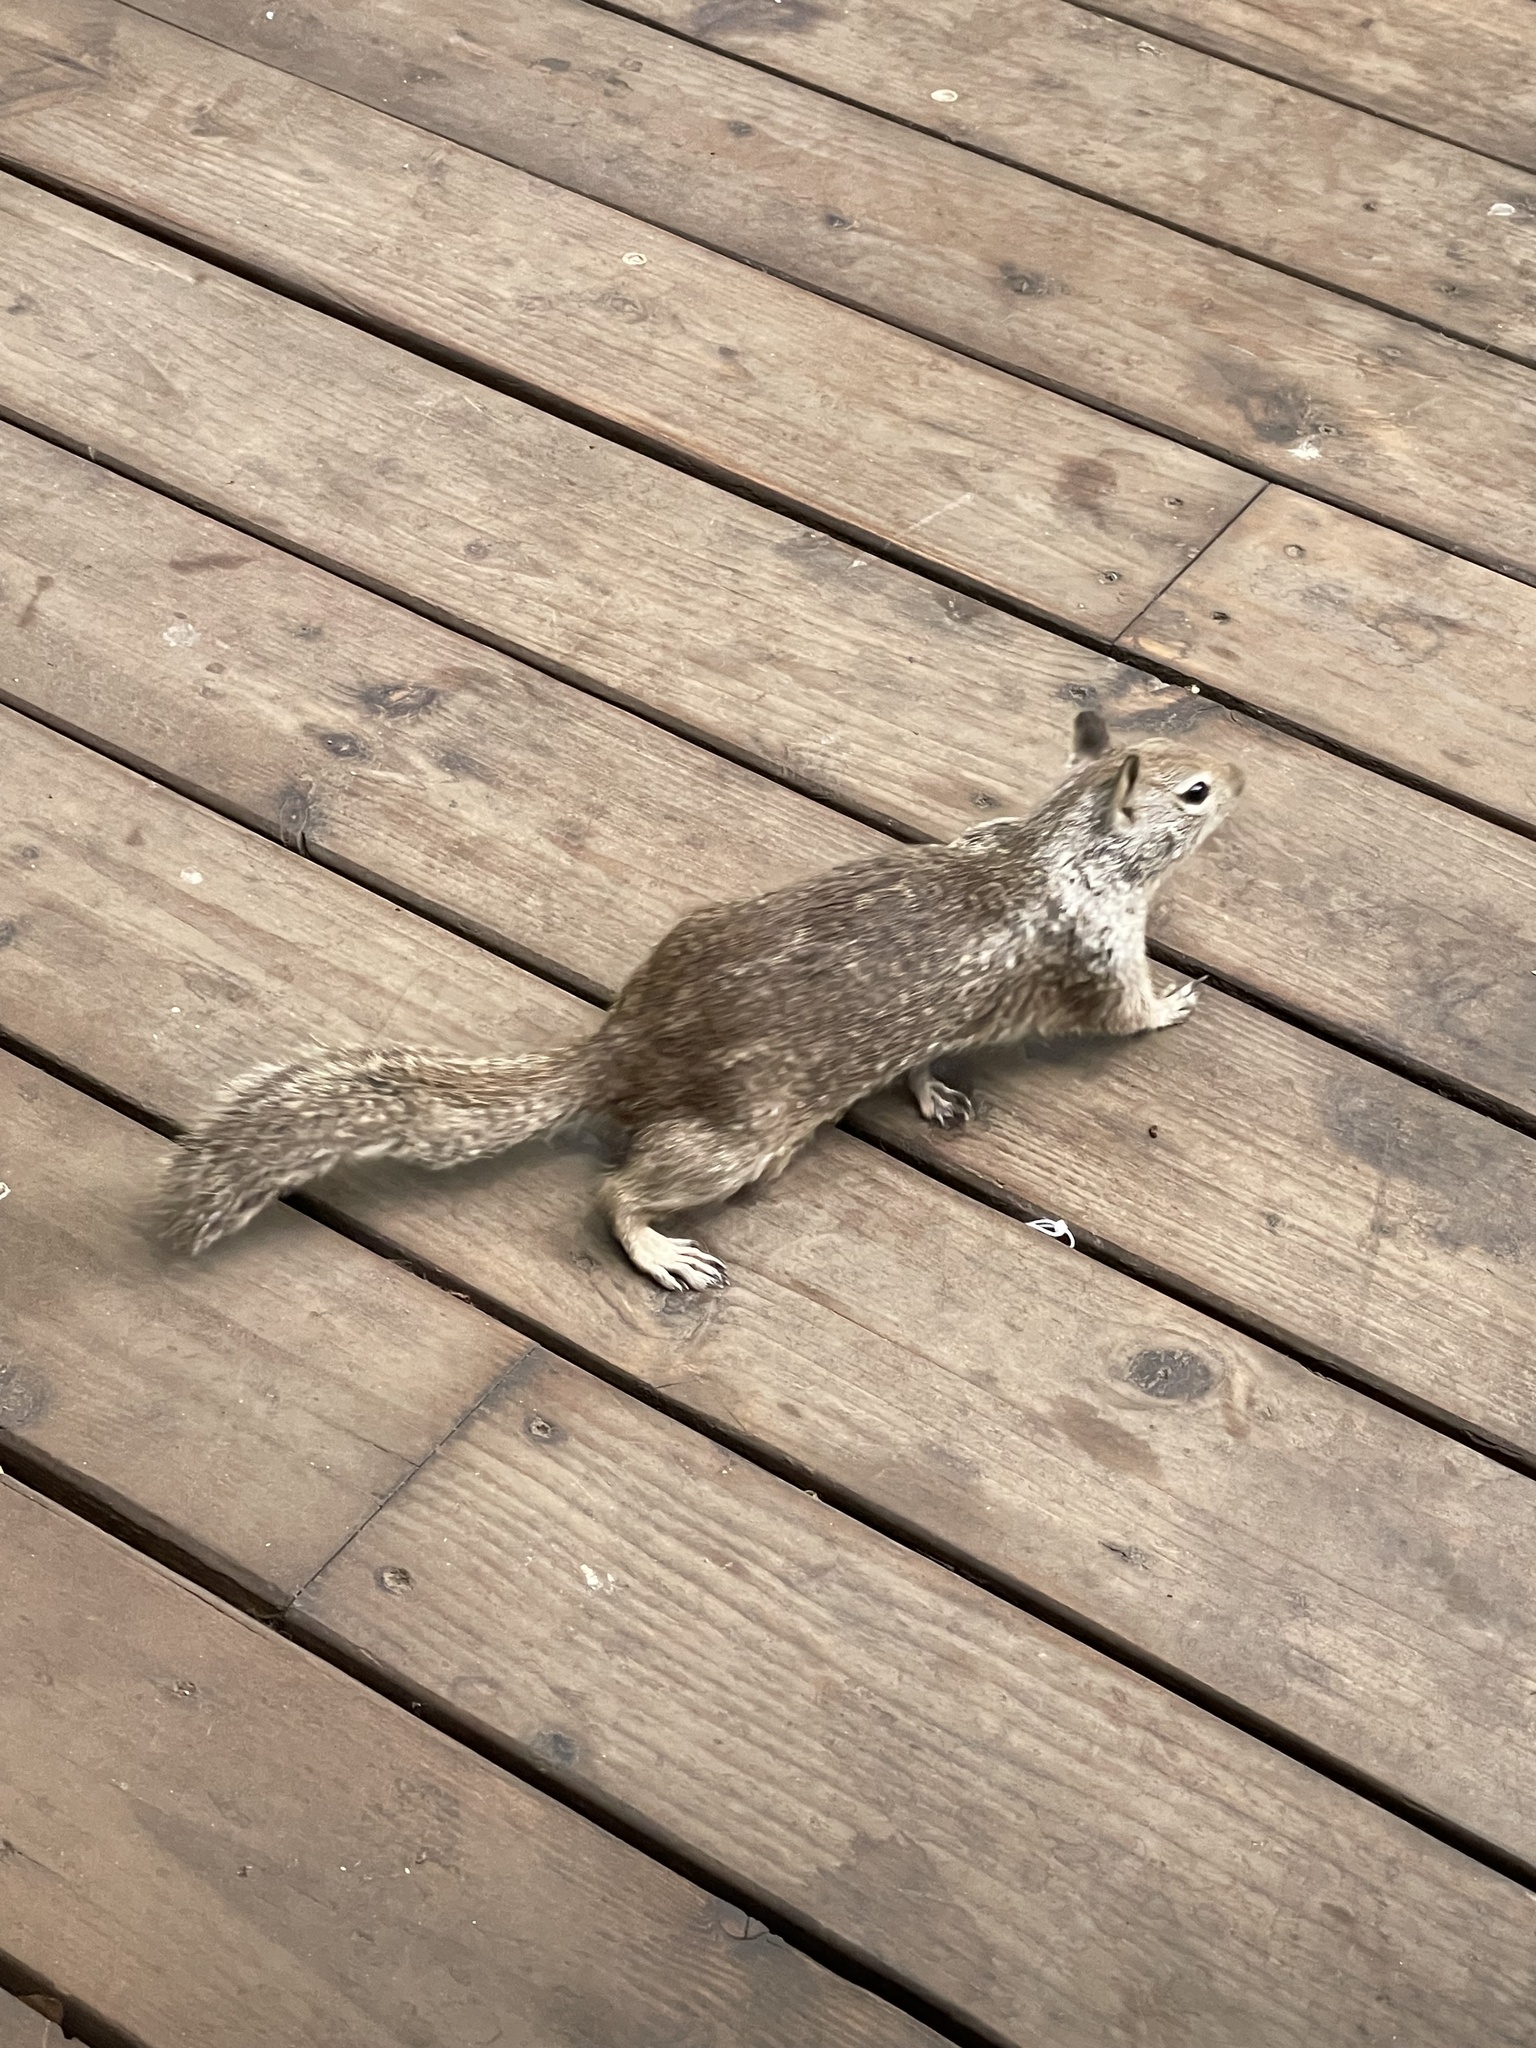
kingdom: Animalia
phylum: Chordata
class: Mammalia
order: Rodentia
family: Sciuridae
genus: Otospermophilus
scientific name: Otospermophilus beecheyi
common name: California ground squirrel
